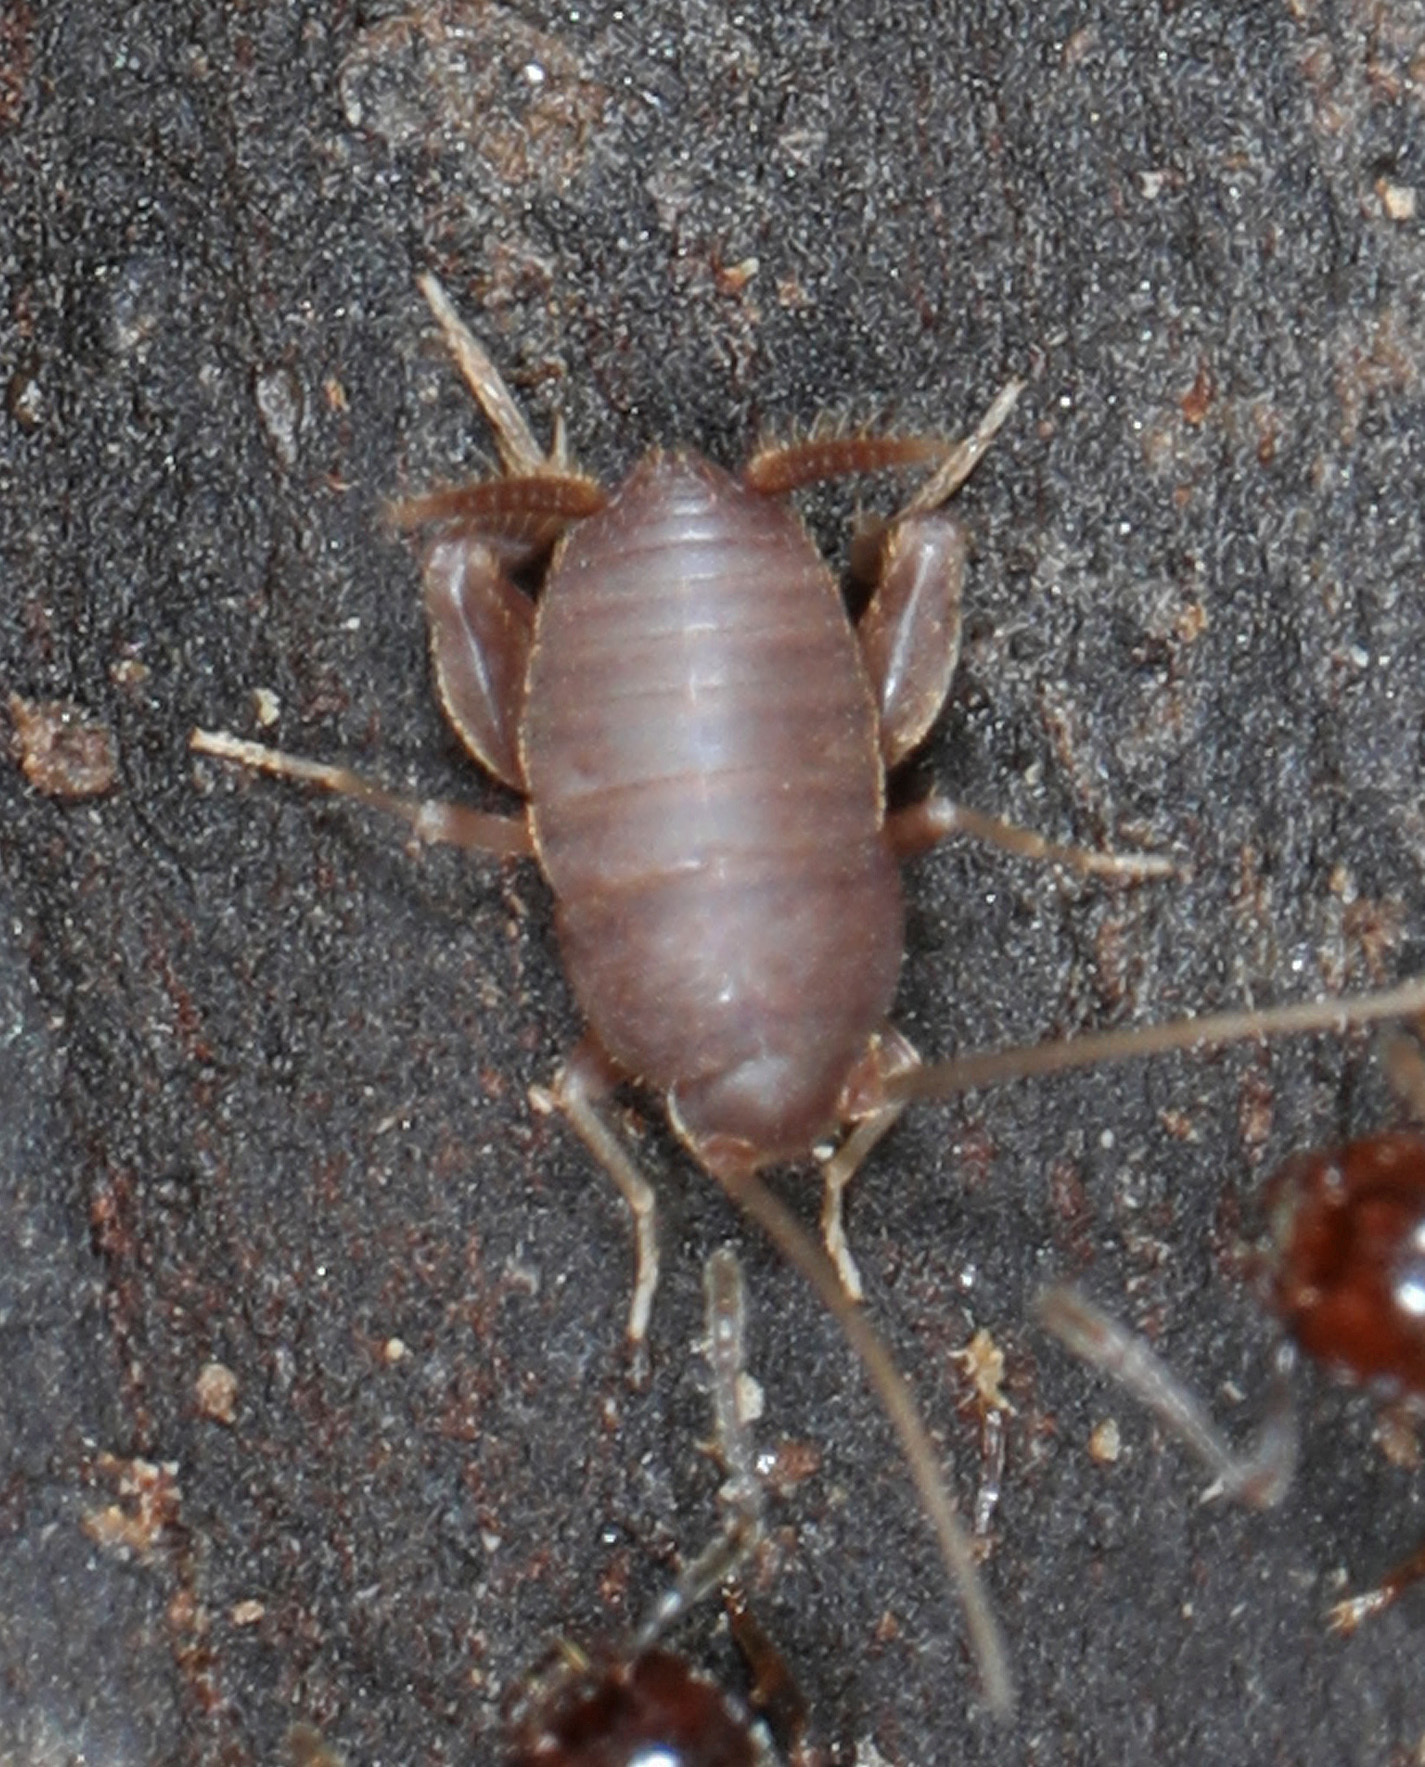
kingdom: Animalia
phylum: Arthropoda
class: Insecta
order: Orthoptera
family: Myrmecophilidae
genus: Myrmecophilus
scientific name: Myrmecophilus pergandei
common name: Eastern ant cricket
